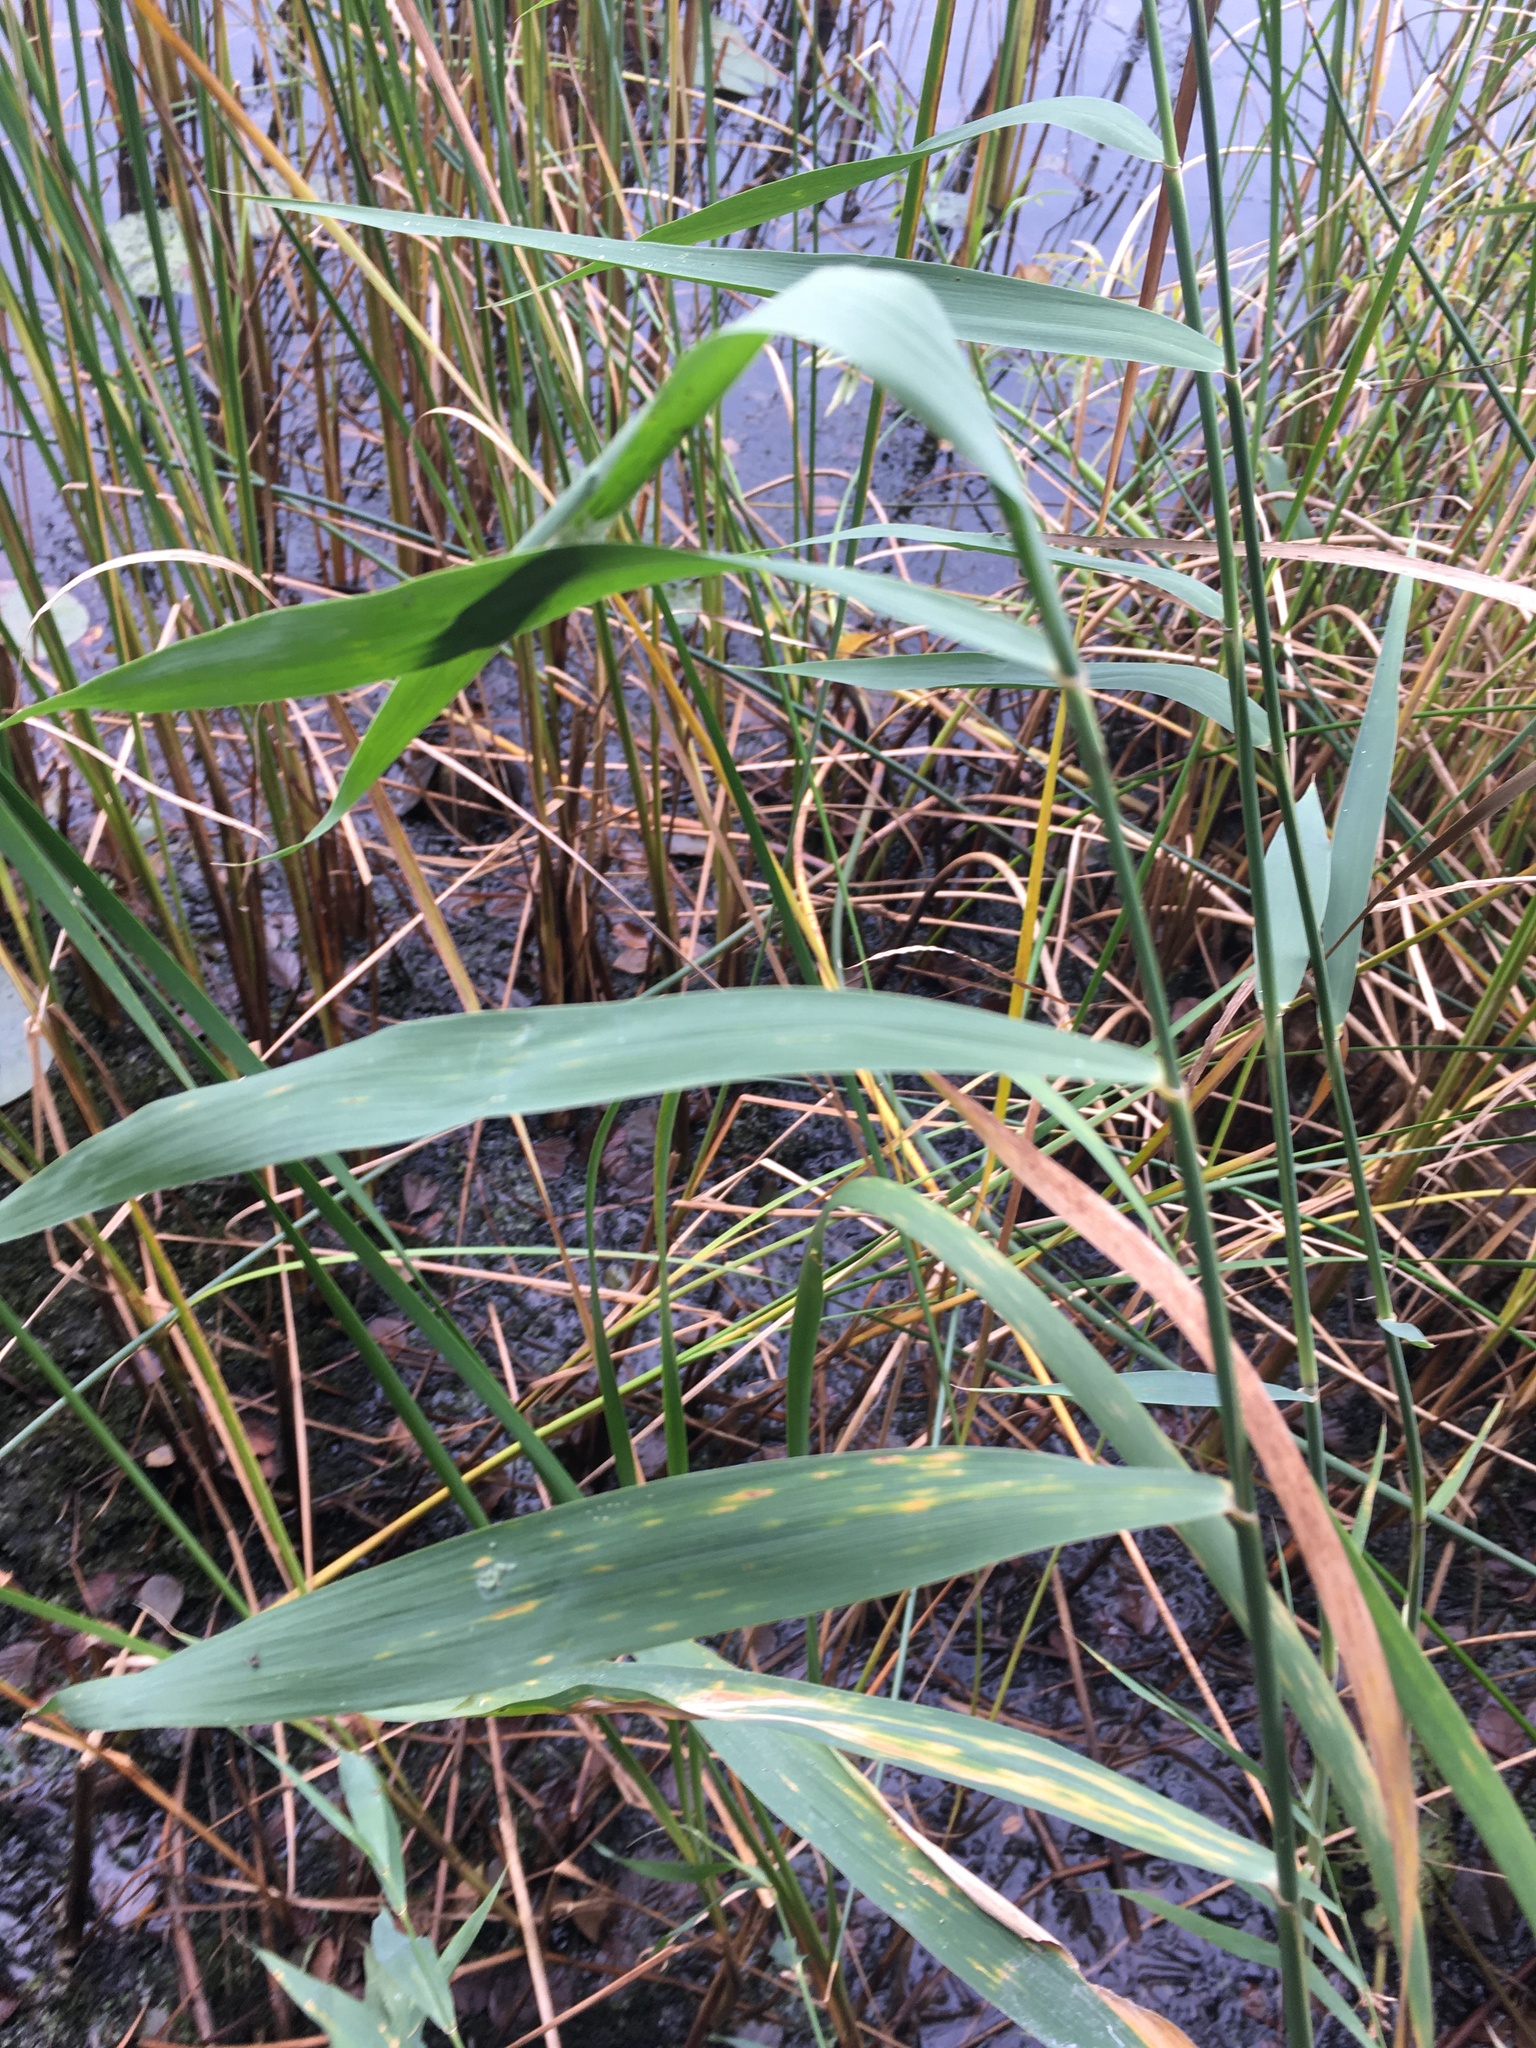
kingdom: Plantae
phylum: Tracheophyta
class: Liliopsida
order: Poales
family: Poaceae
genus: Phragmites
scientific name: Phragmites australis
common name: Common reed
